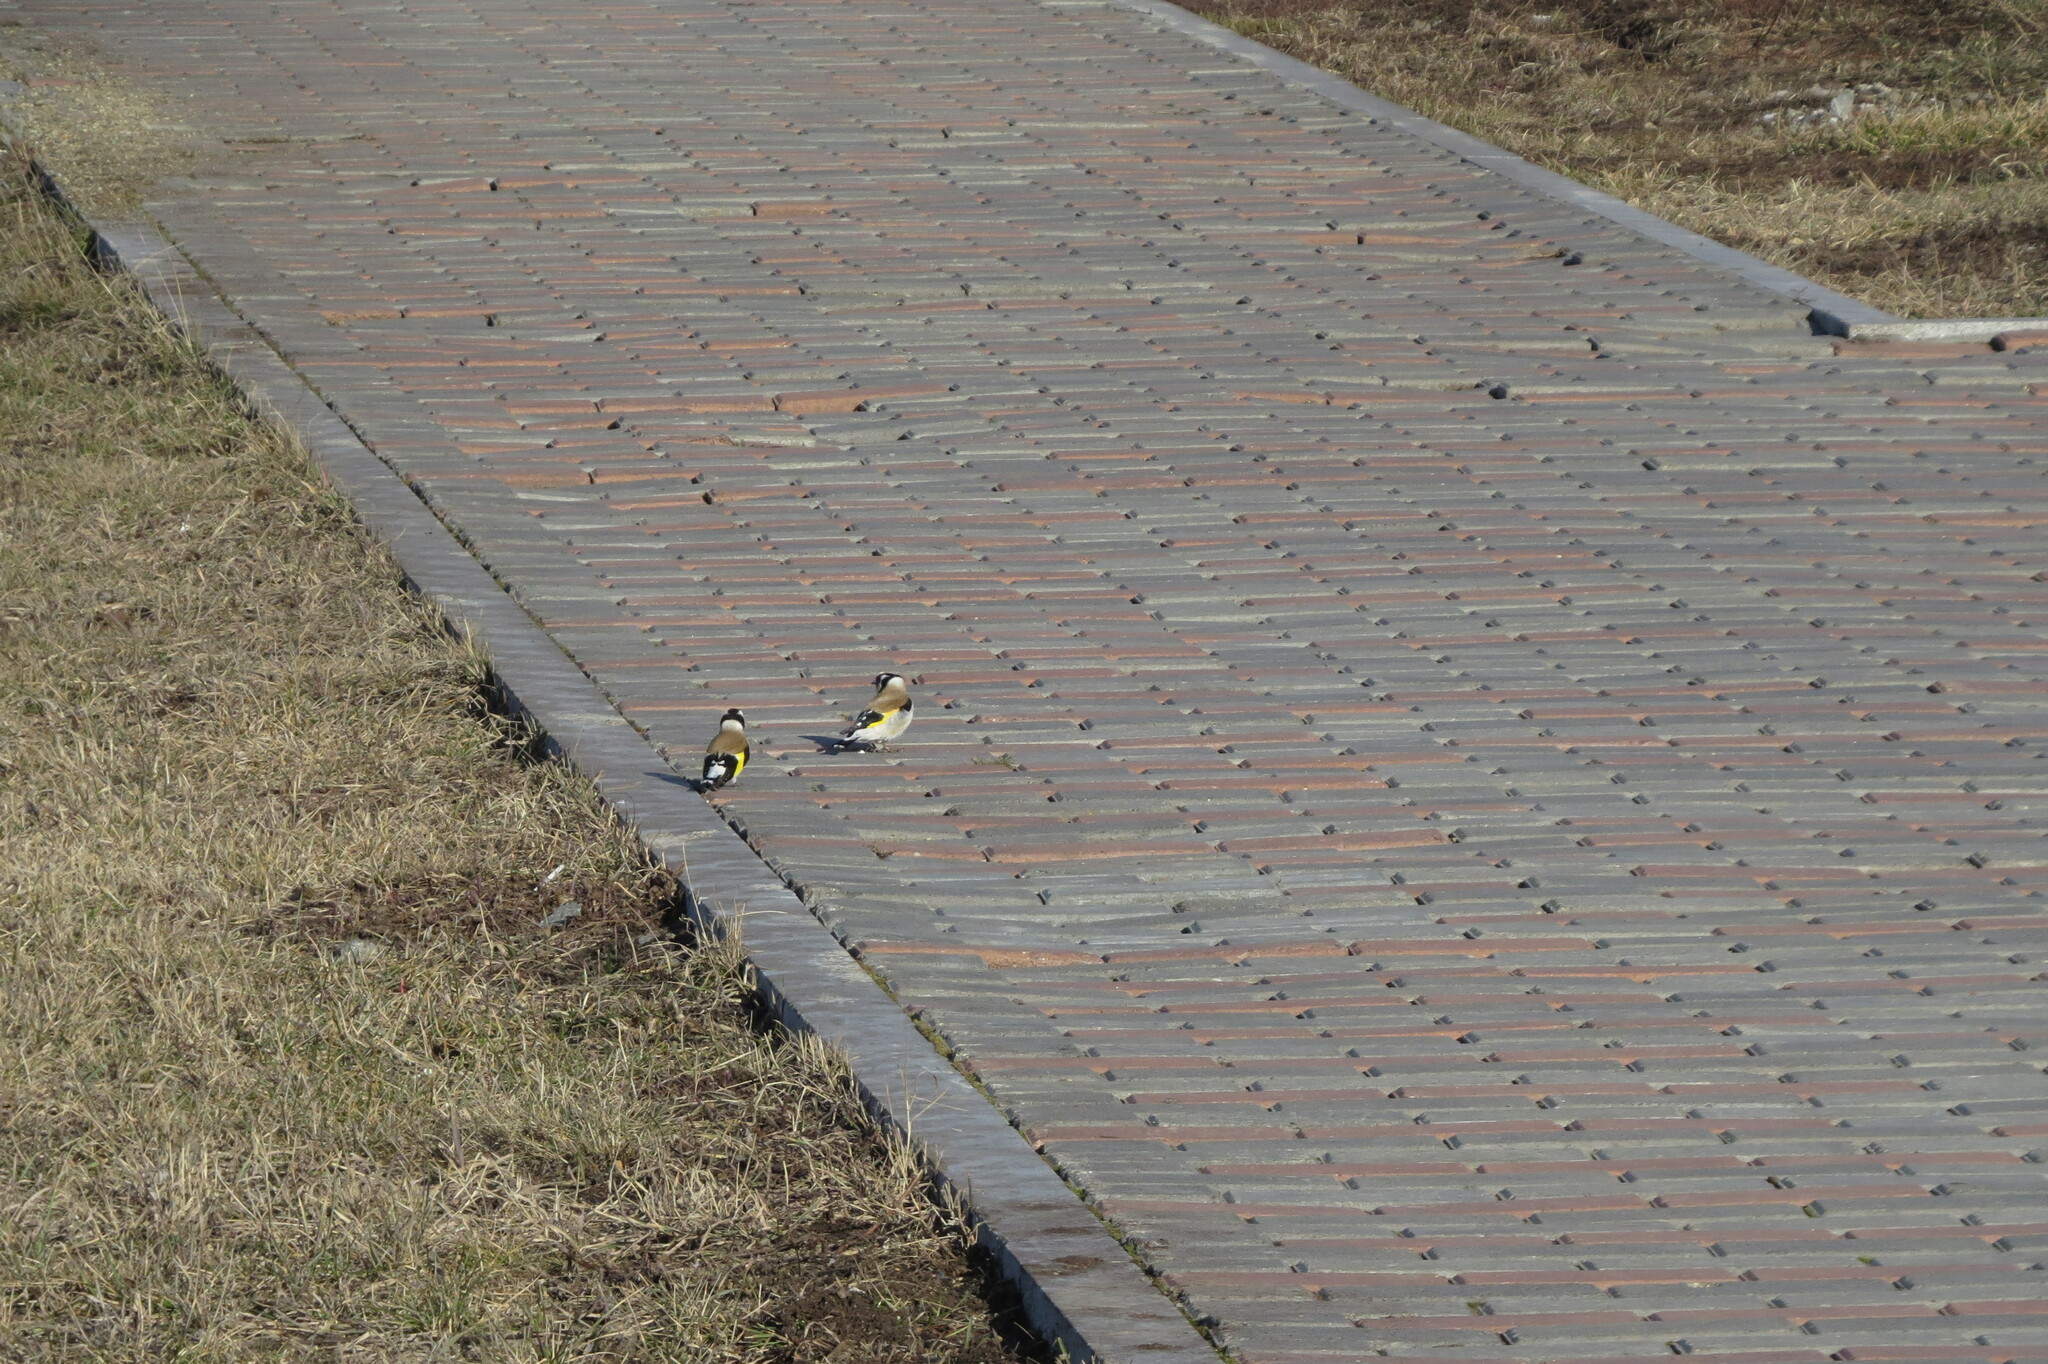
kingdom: Animalia
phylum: Chordata
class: Aves
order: Passeriformes
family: Fringillidae
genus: Carduelis
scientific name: Carduelis carduelis
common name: European goldfinch
